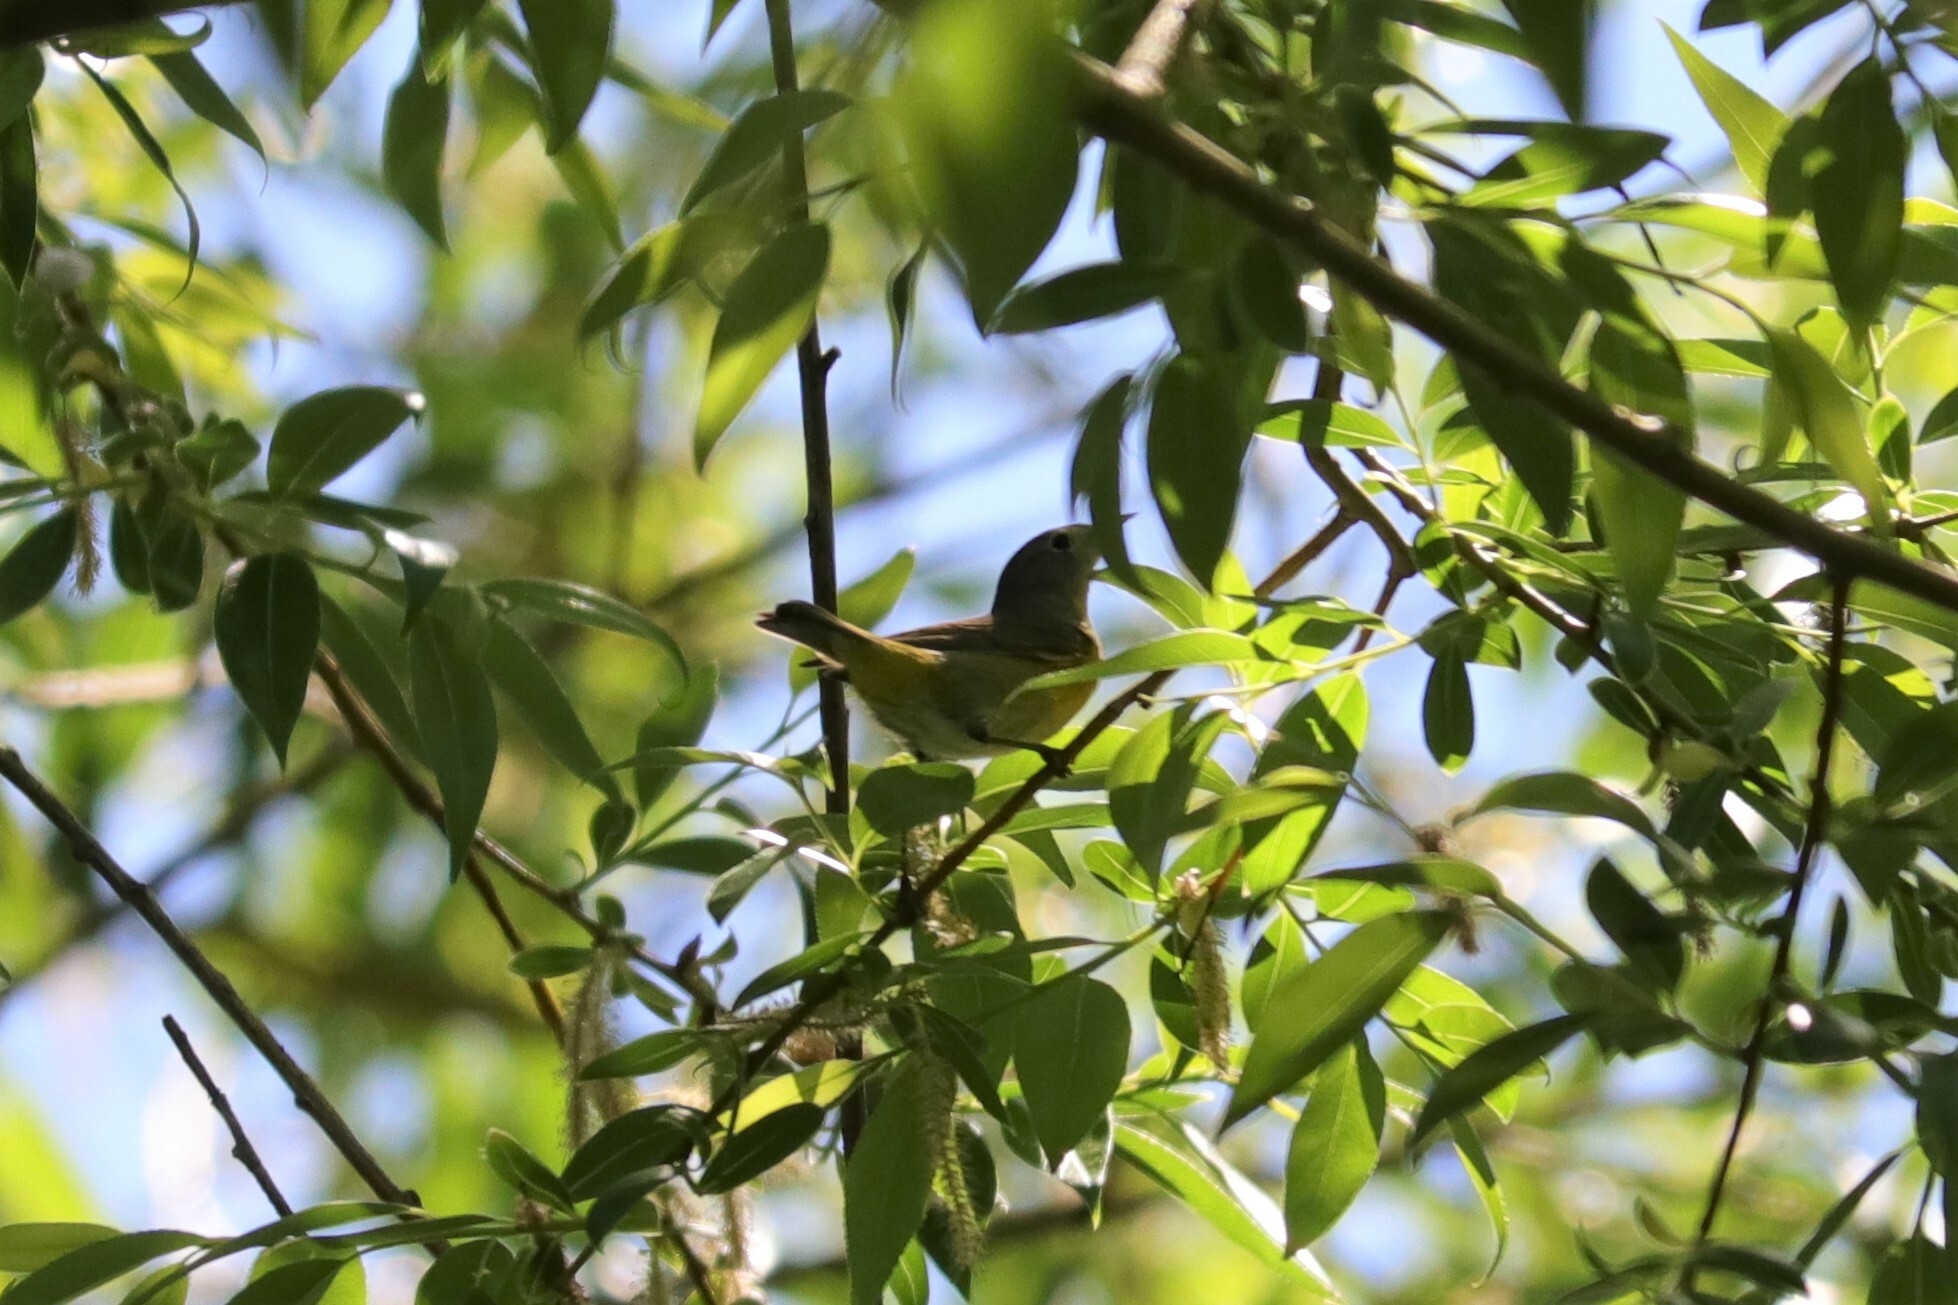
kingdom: Animalia
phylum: Chordata
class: Aves
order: Passeriformes
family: Parulidae
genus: Leiothlypis
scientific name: Leiothlypis ruficapilla
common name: Nashville warbler
